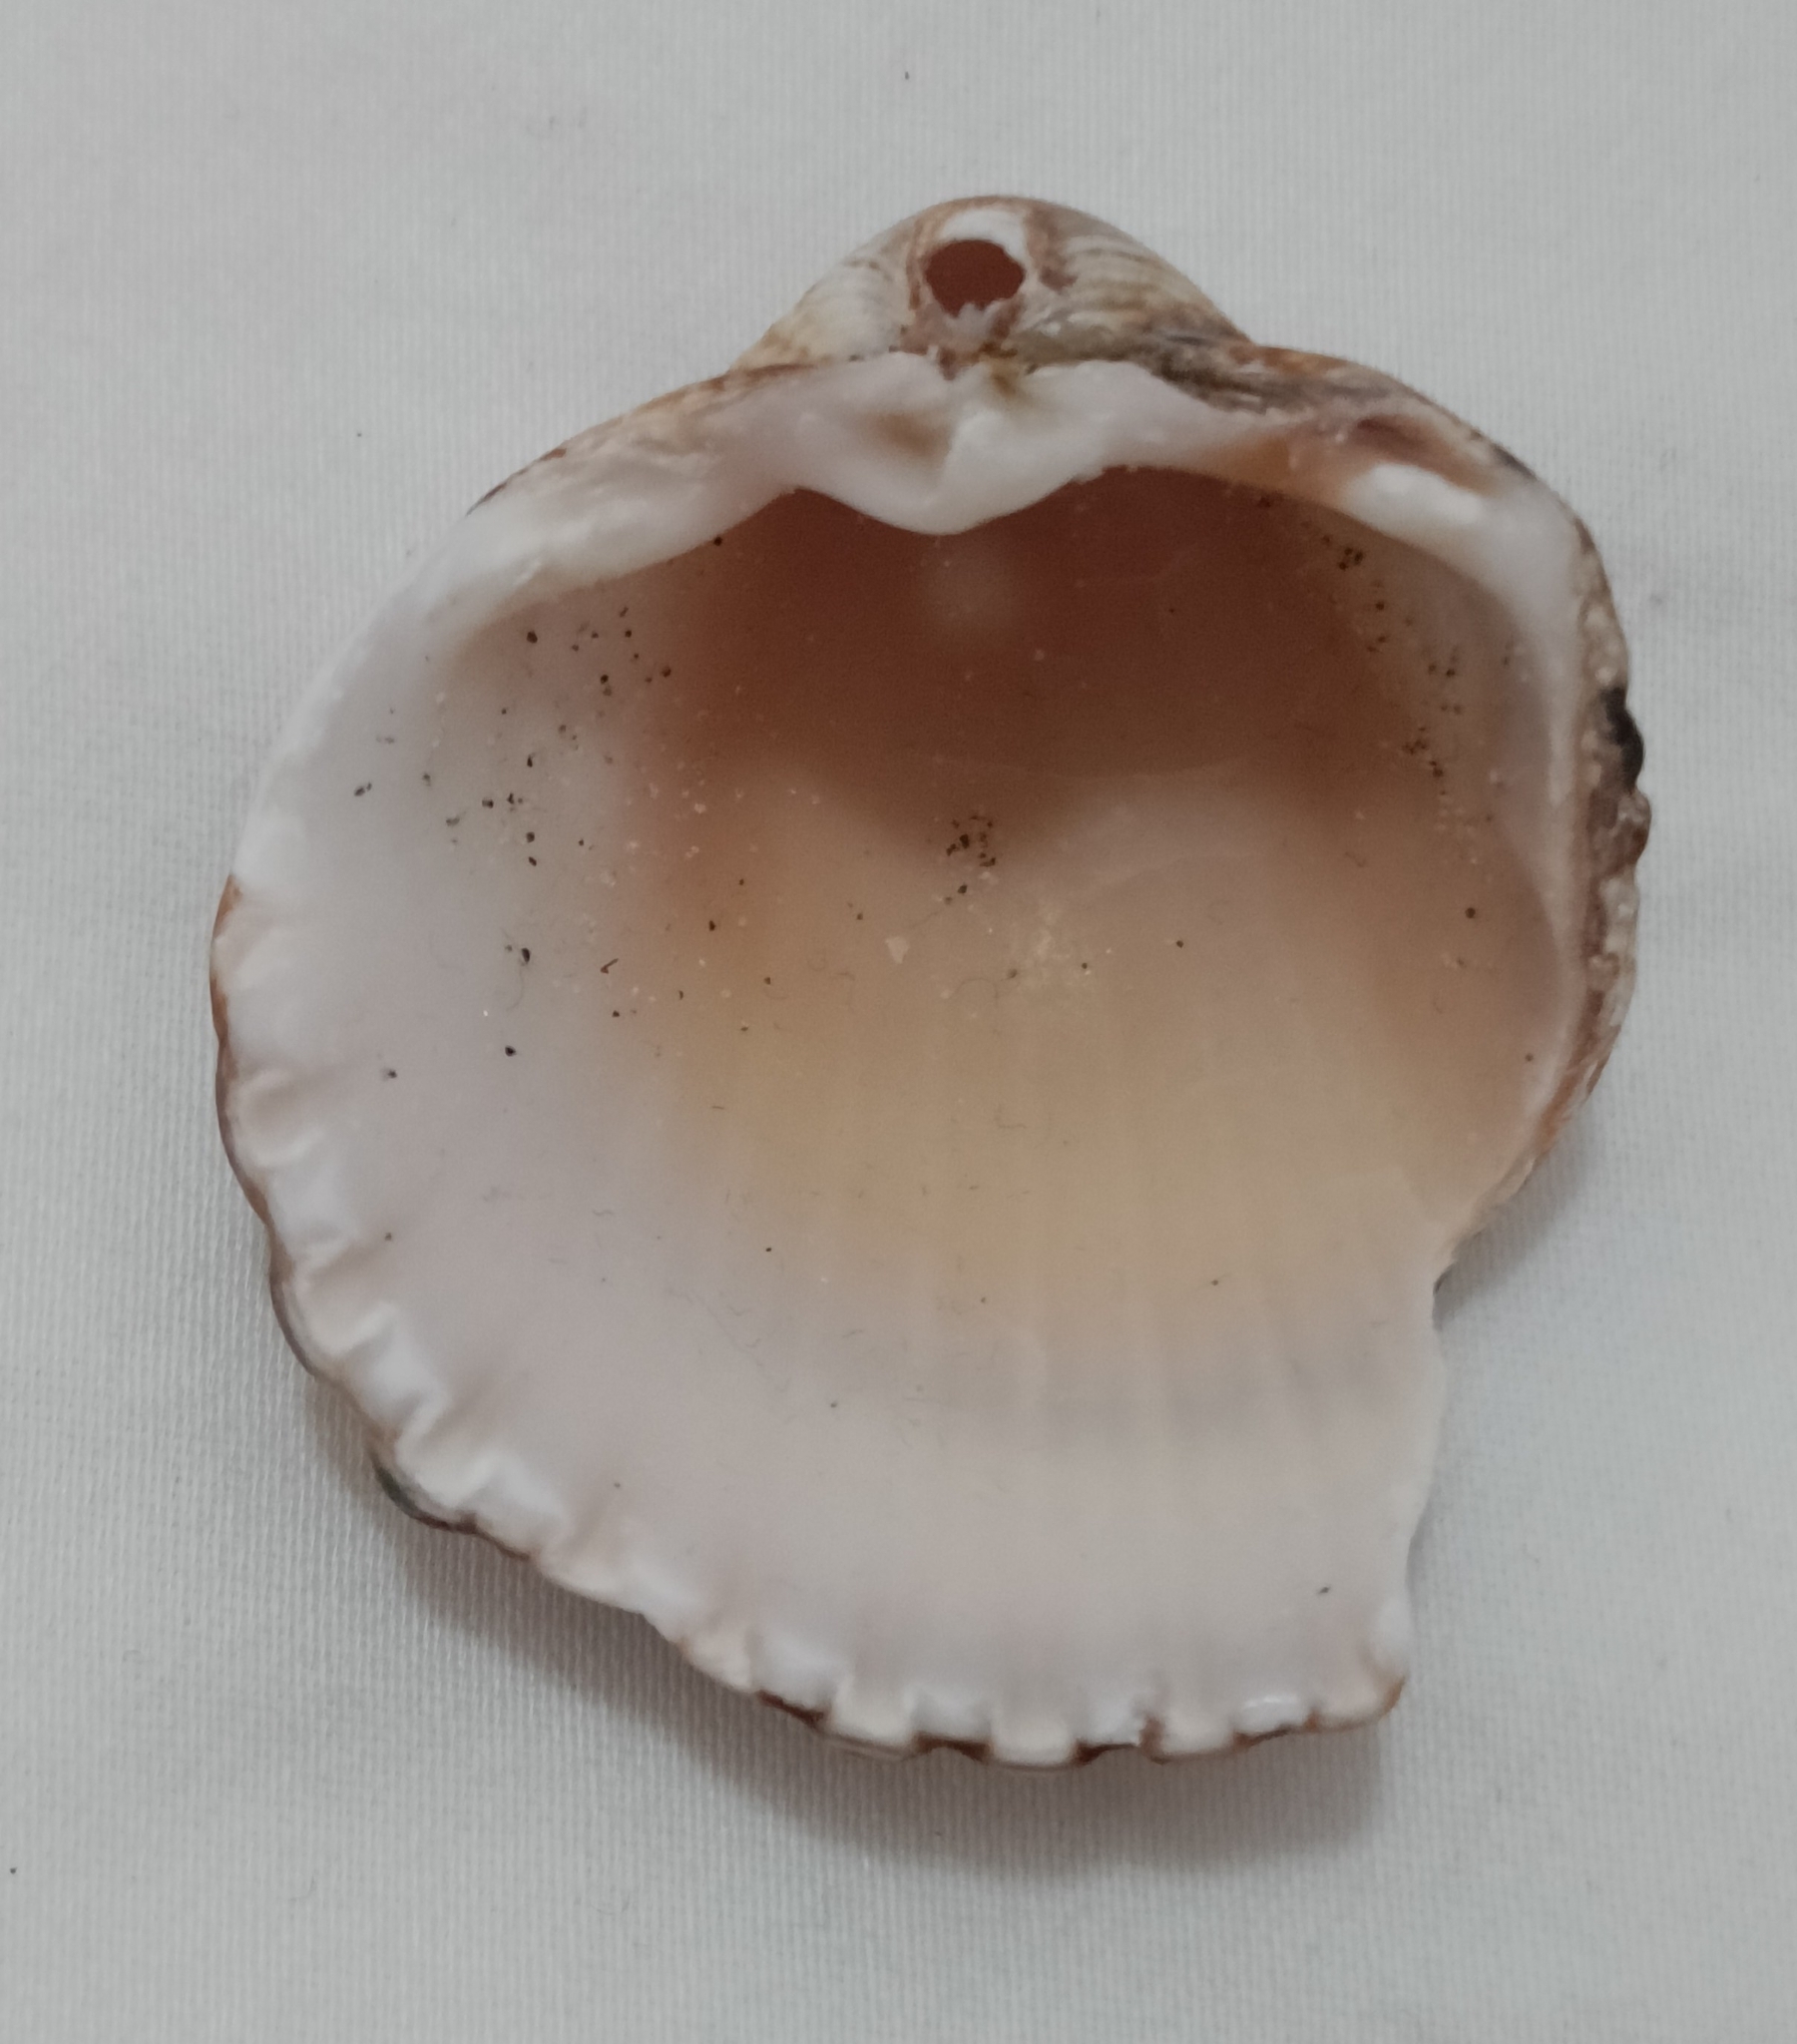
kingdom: Animalia
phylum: Mollusca
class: Bivalvia
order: Cardiida
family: Cardiidae
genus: Acanthocardia
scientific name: Acanthocardia tuberculata
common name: Rough cockle
